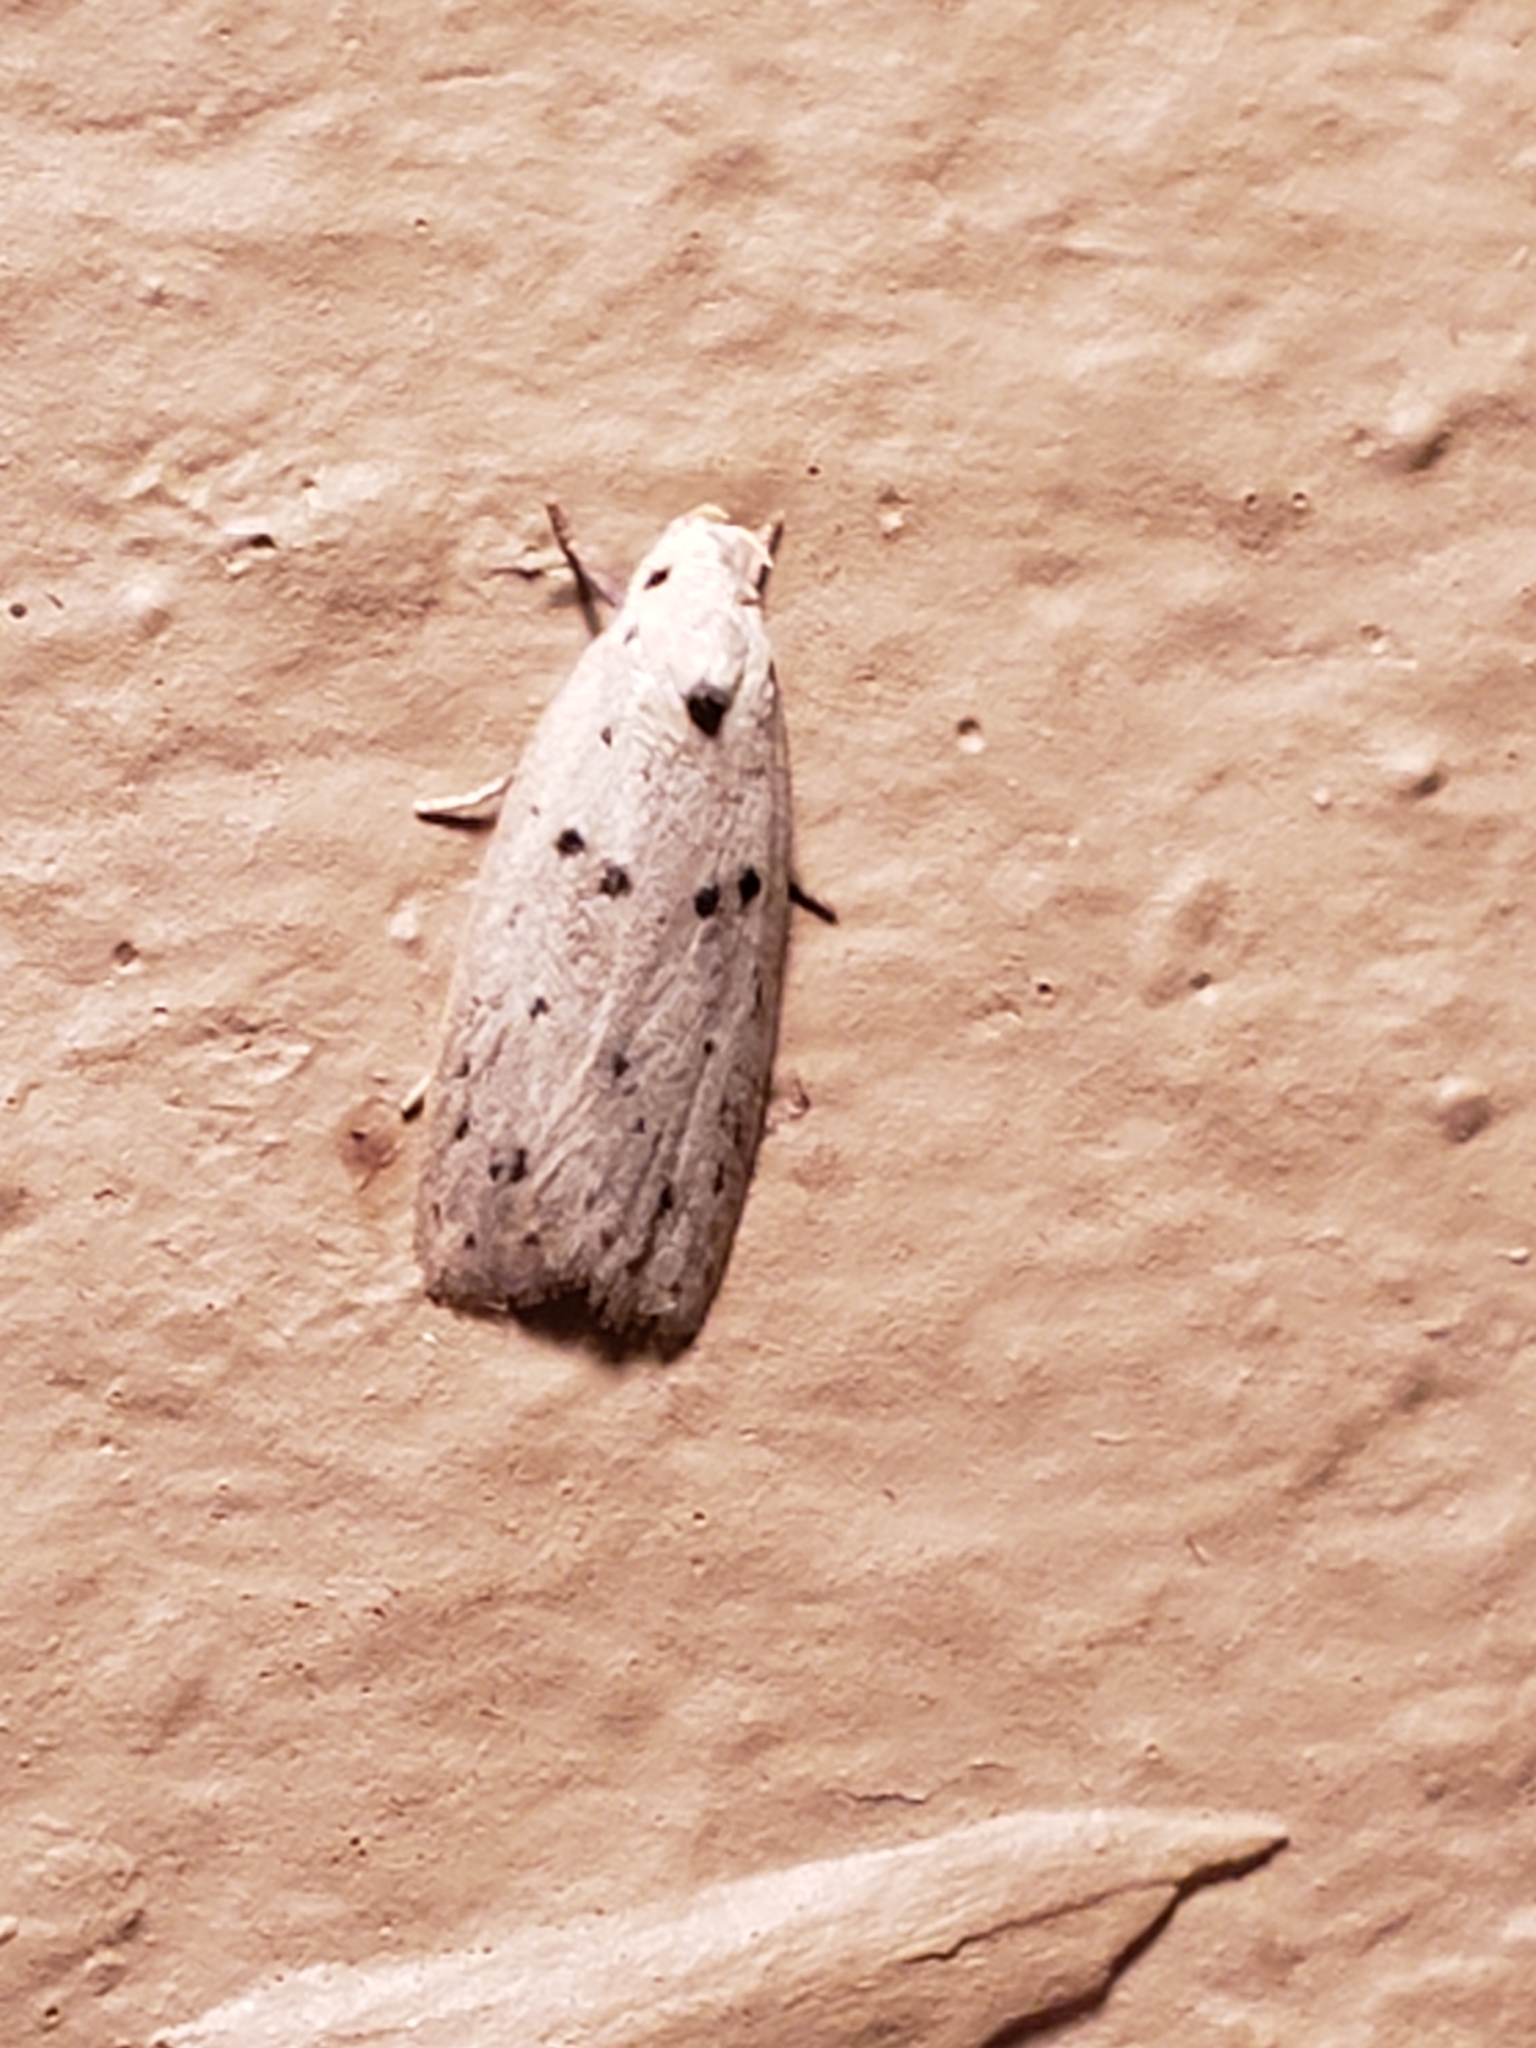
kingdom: Animalia
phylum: Arthropoda
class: Insecta
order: Lepidoptera
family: Peleopodidae
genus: Scythropiodes
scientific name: Scythropiodes issikii
